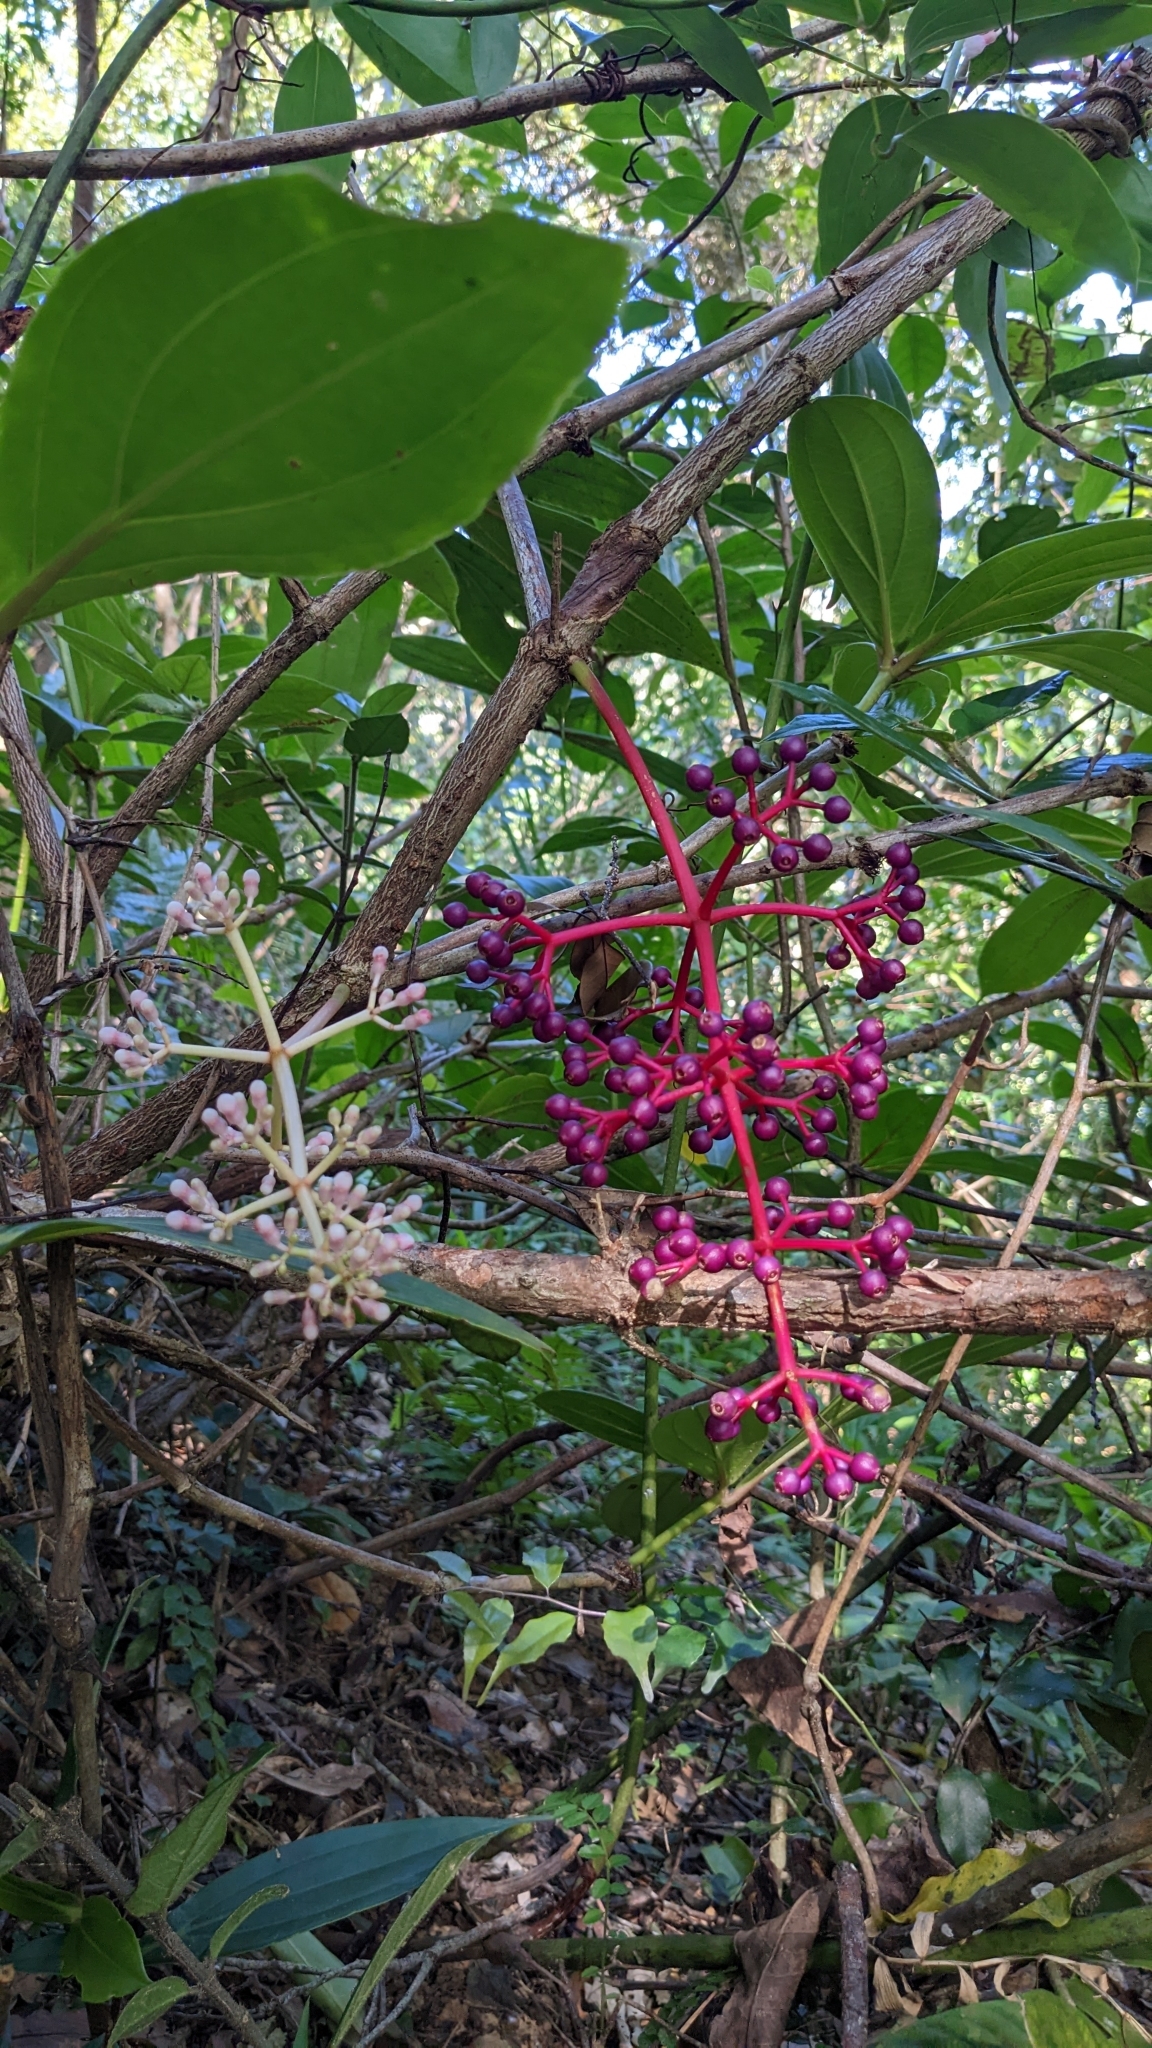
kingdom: Plantae
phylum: Tracheophyta
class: Magnoliopsida
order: Myrtales
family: Melastomataceae
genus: Medinilla
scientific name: Medinilla formosana
